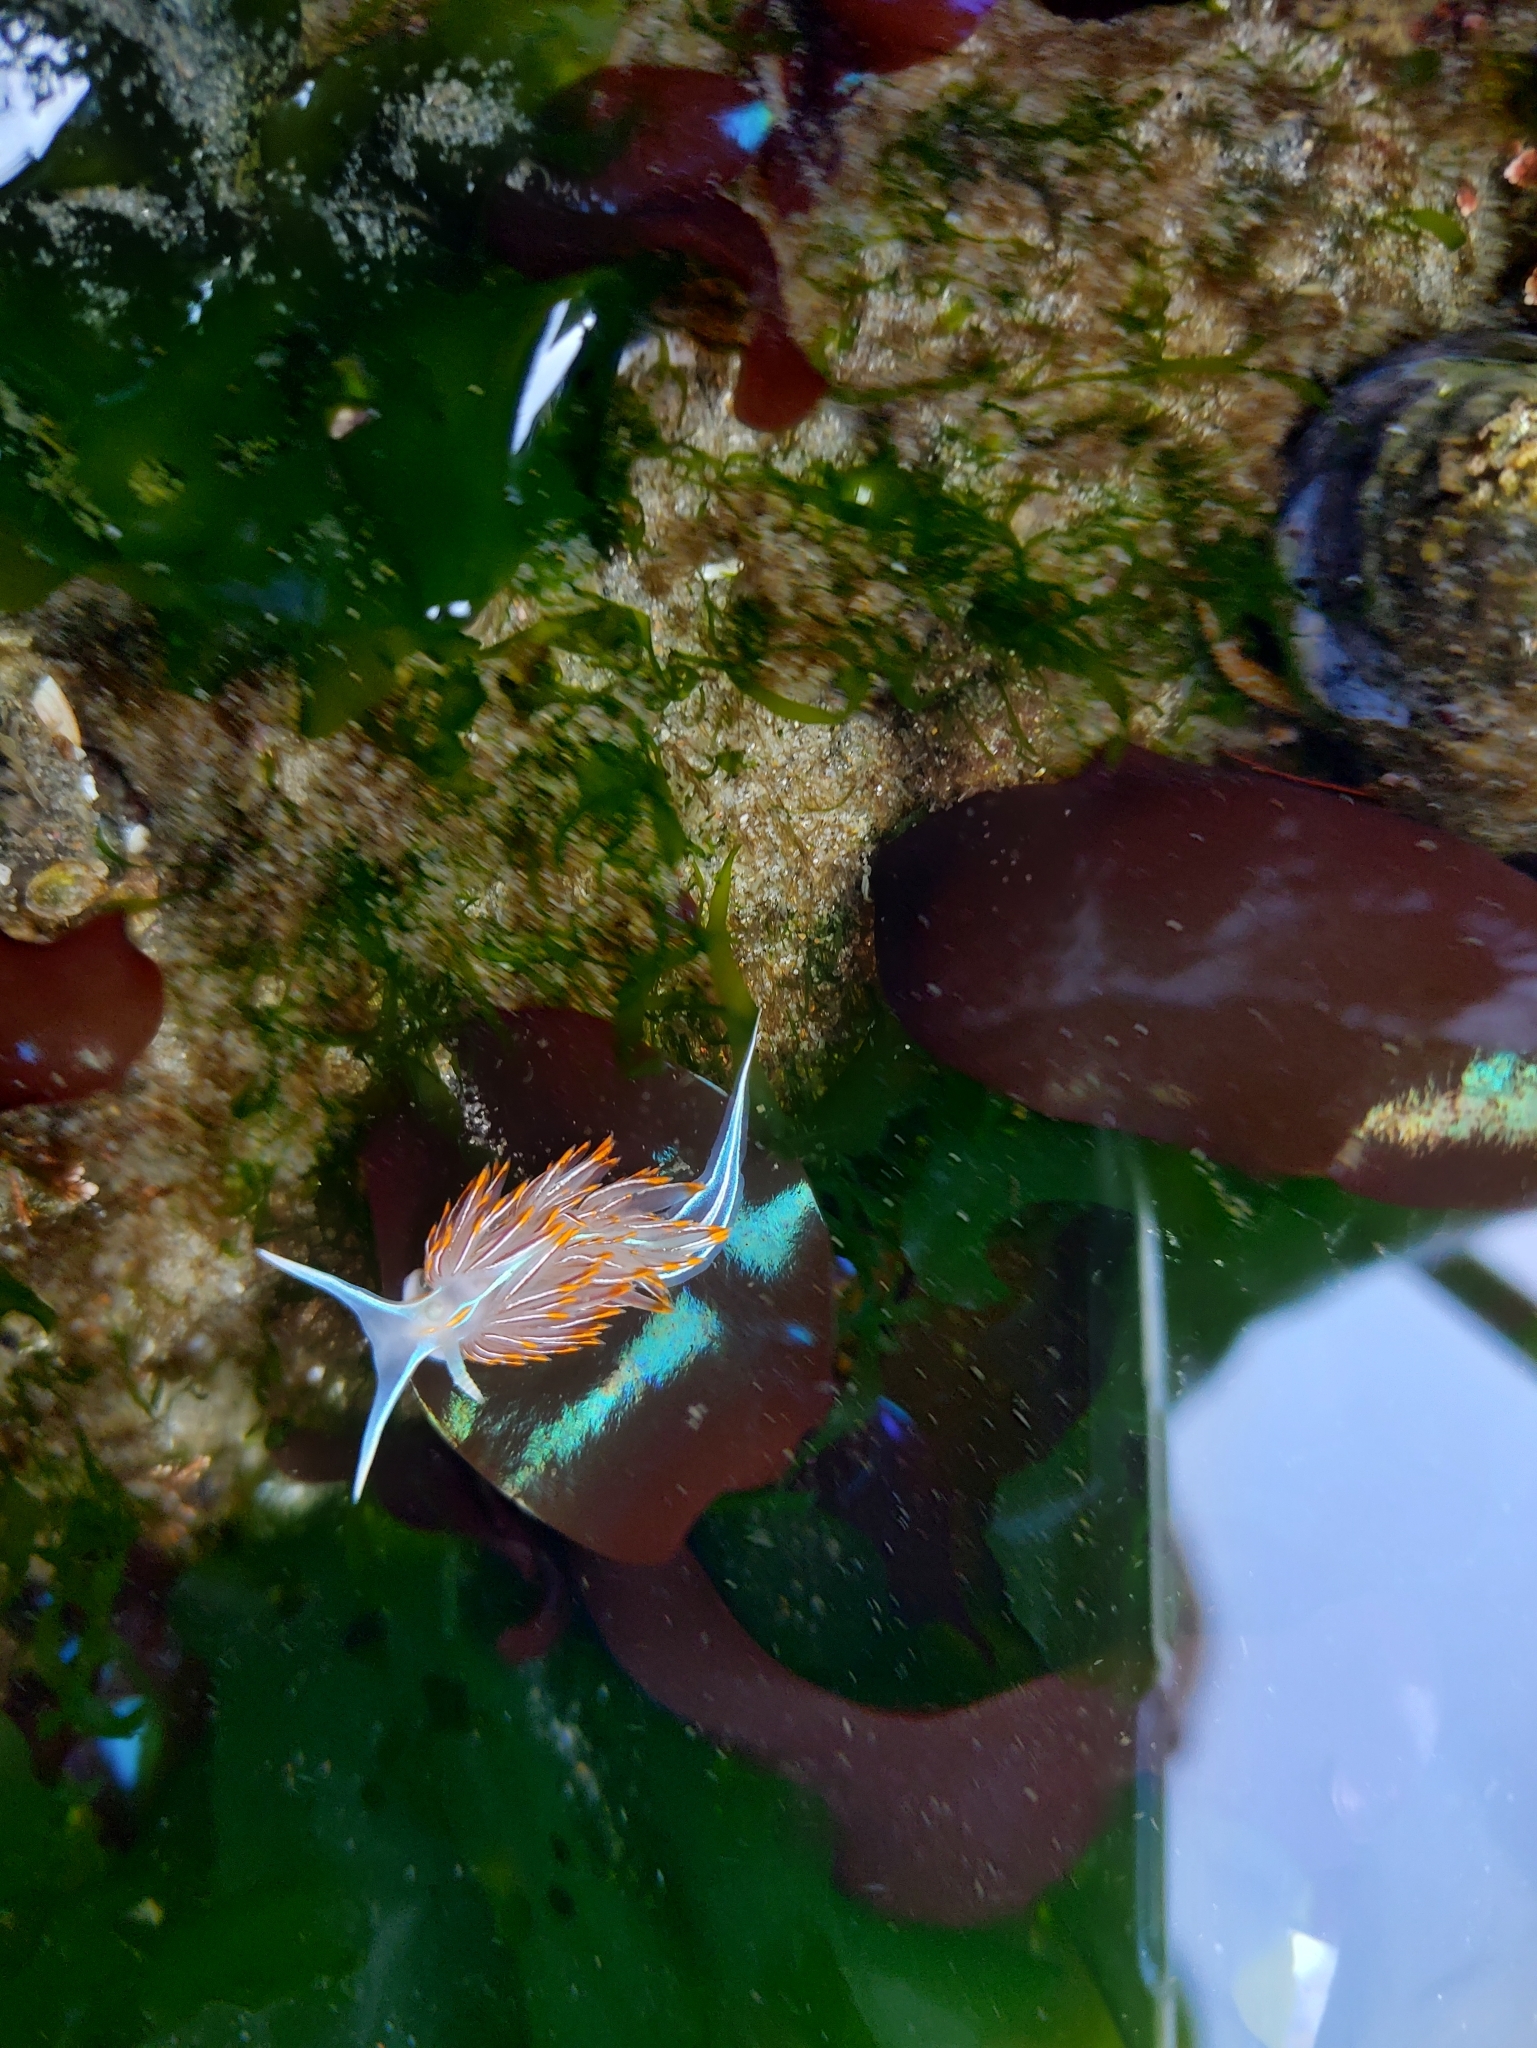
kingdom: Animalia
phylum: Mollusca
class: Gastropoda
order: Nudibranchia
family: Myrrhinidae
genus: Hermissenda
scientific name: Hermissenda crassicornis
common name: Hermissenda
